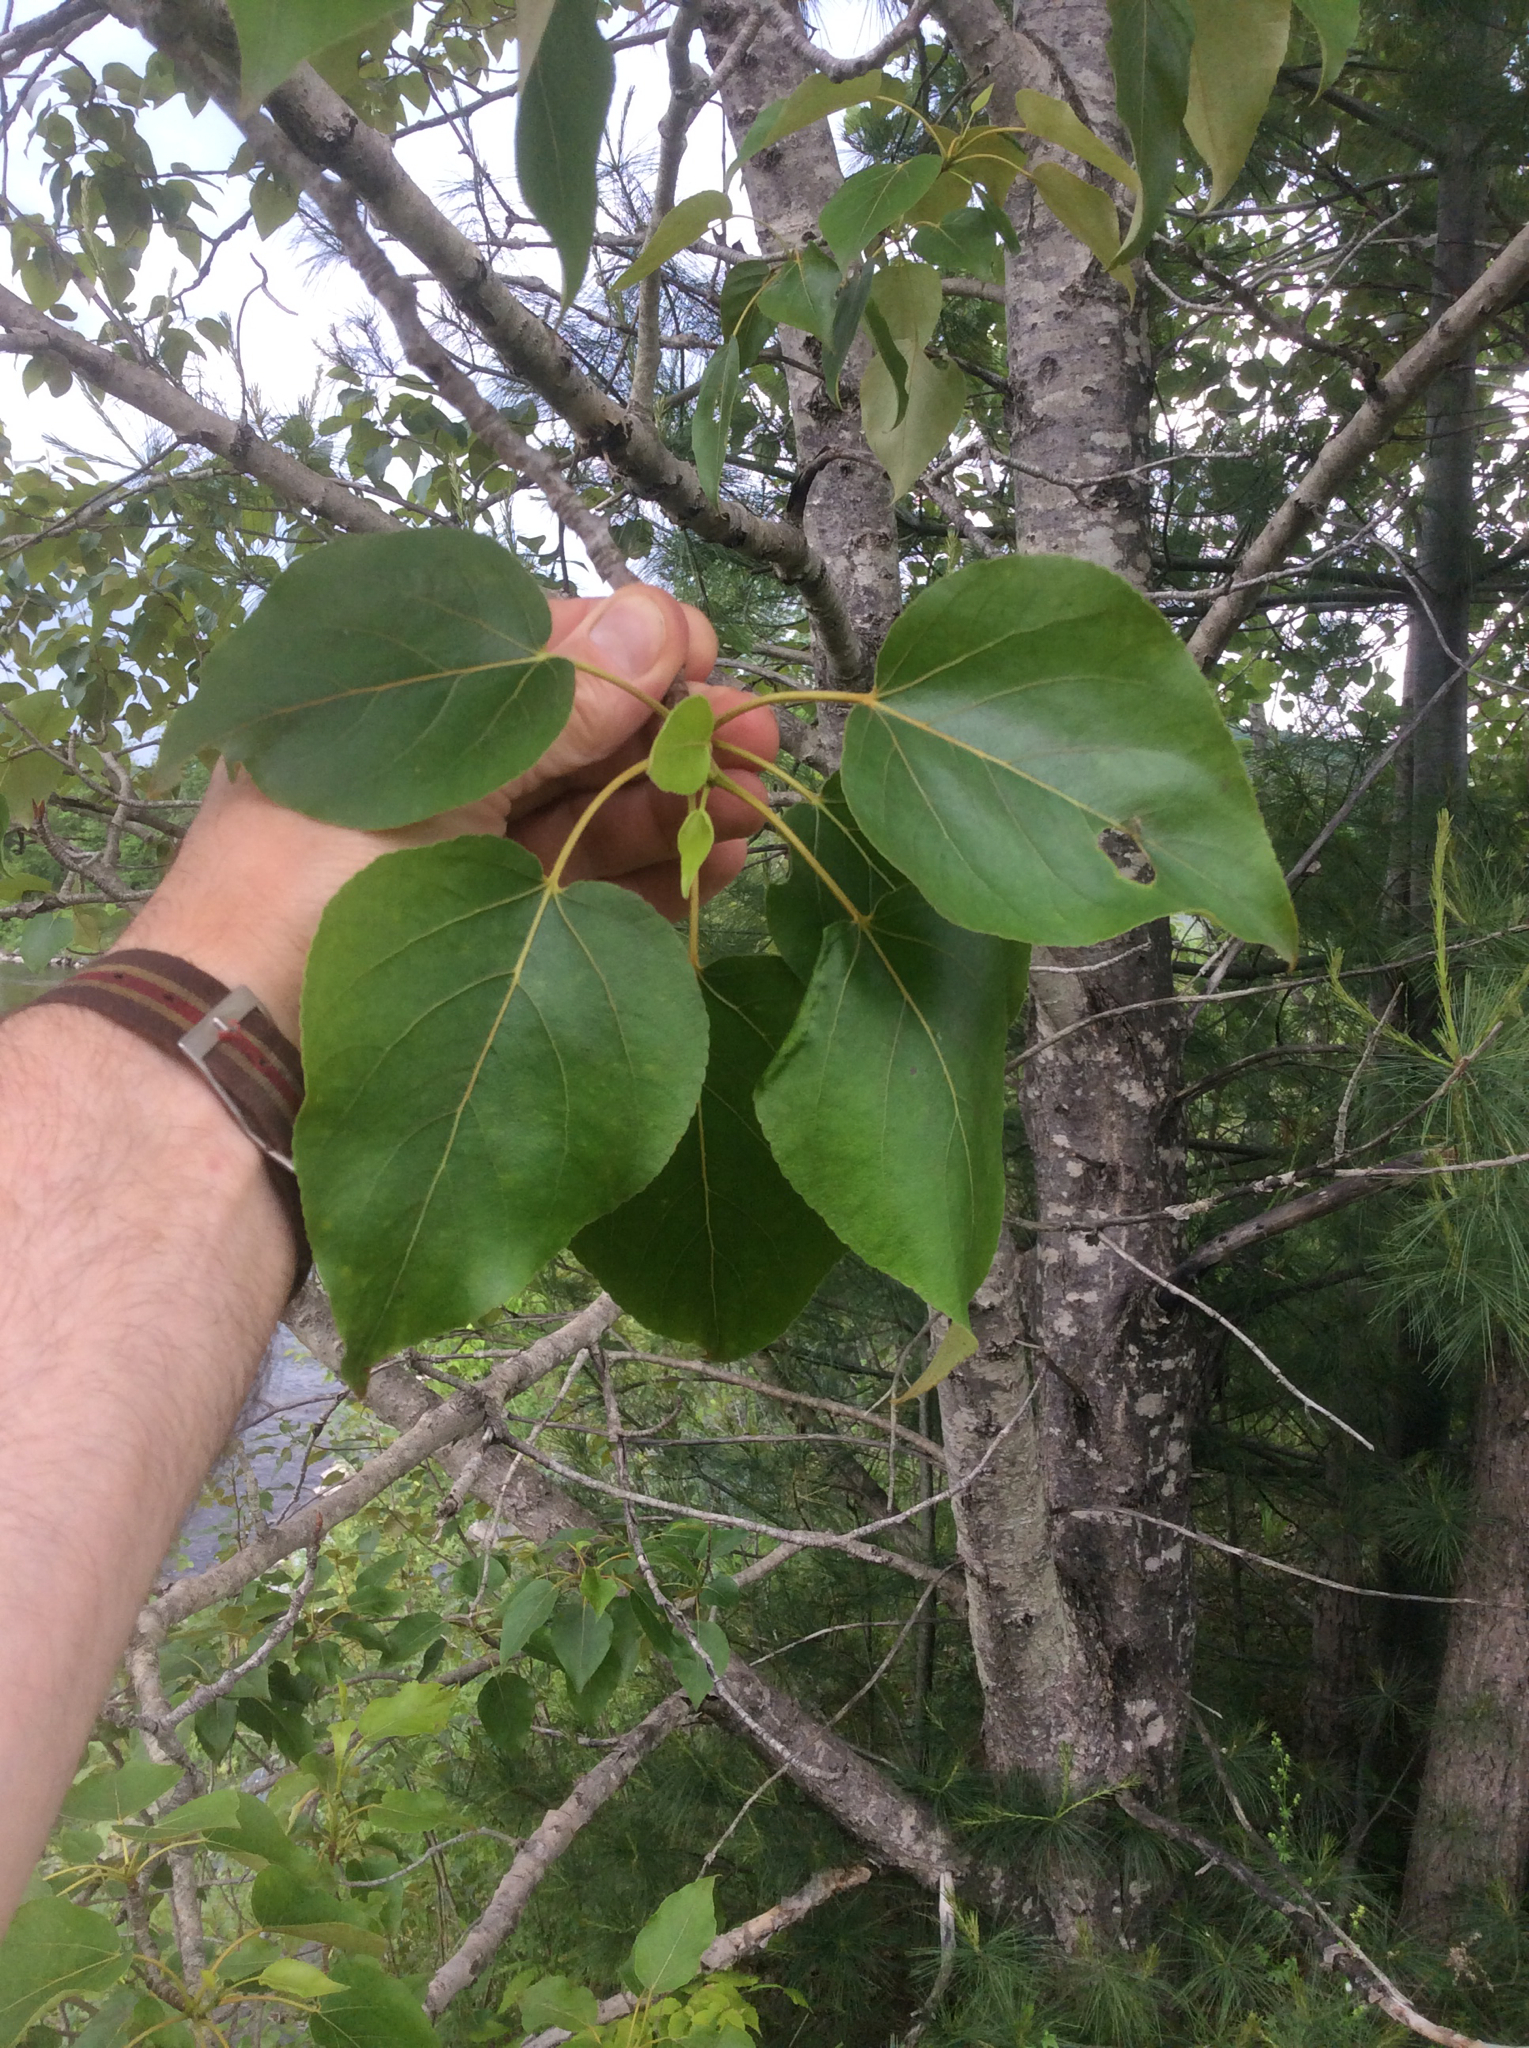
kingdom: Plantae
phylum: Tracheophyta
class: Magnoliopsida
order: Malpighiales
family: Salicaceae
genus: Populus
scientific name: Populus balsamifera
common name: Balsam poplar
